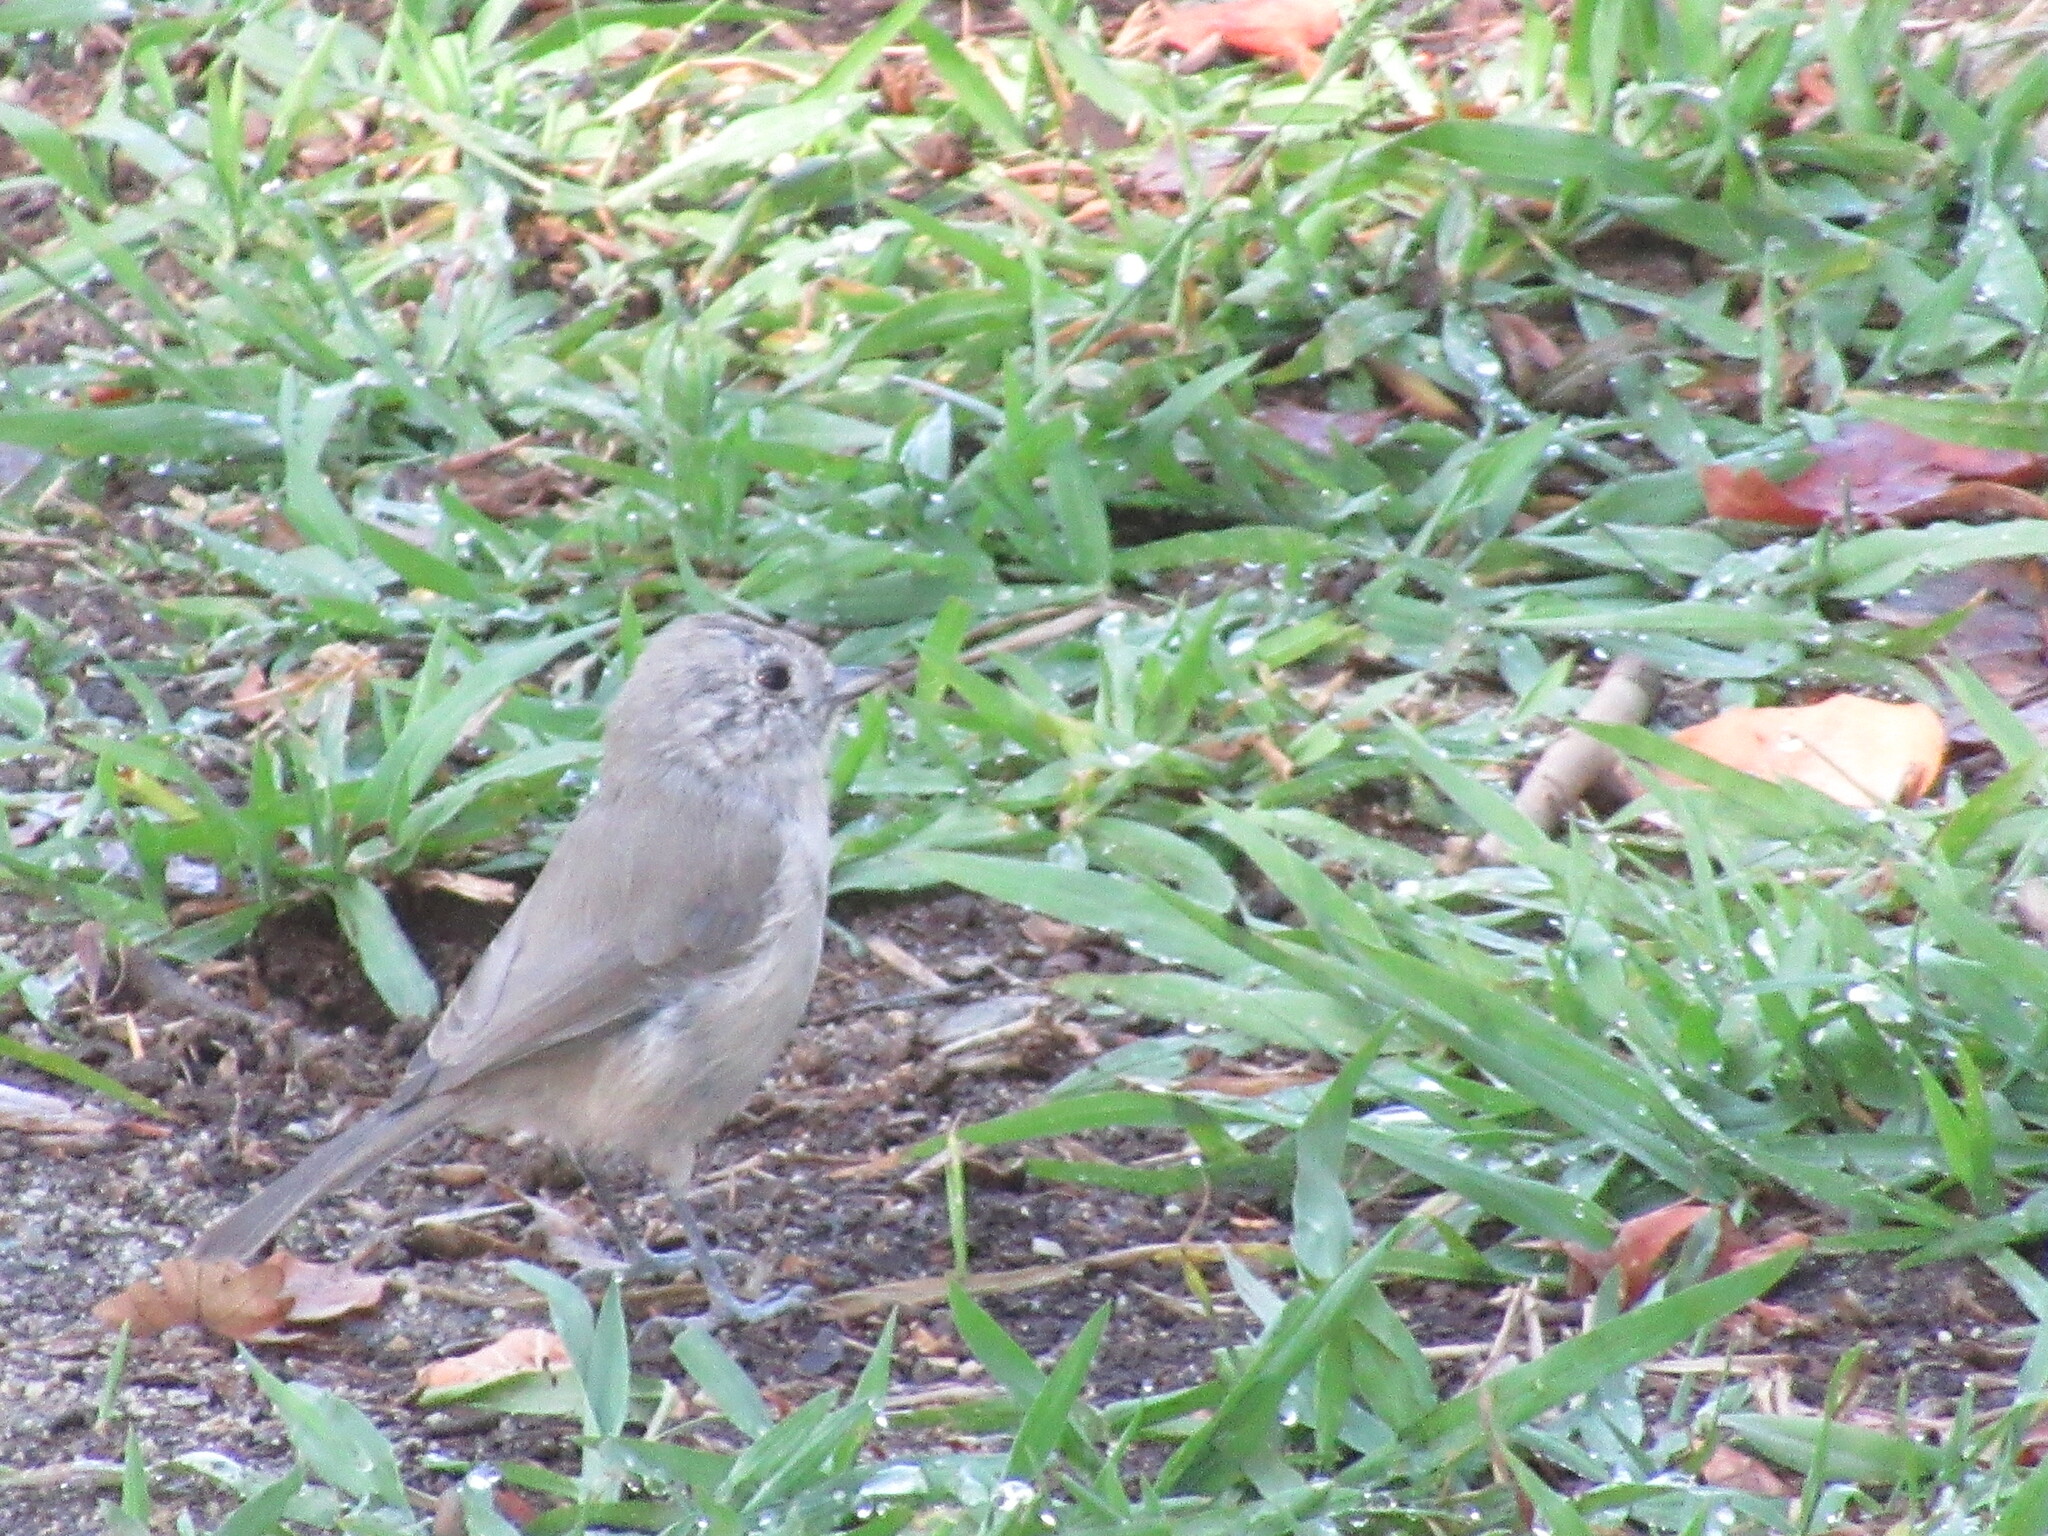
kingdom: Animalia
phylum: Chordata
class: Aves
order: Passeriformes
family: Paridae
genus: Baeolophus
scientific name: Baeolophus inornatus
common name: Oak titmouse
